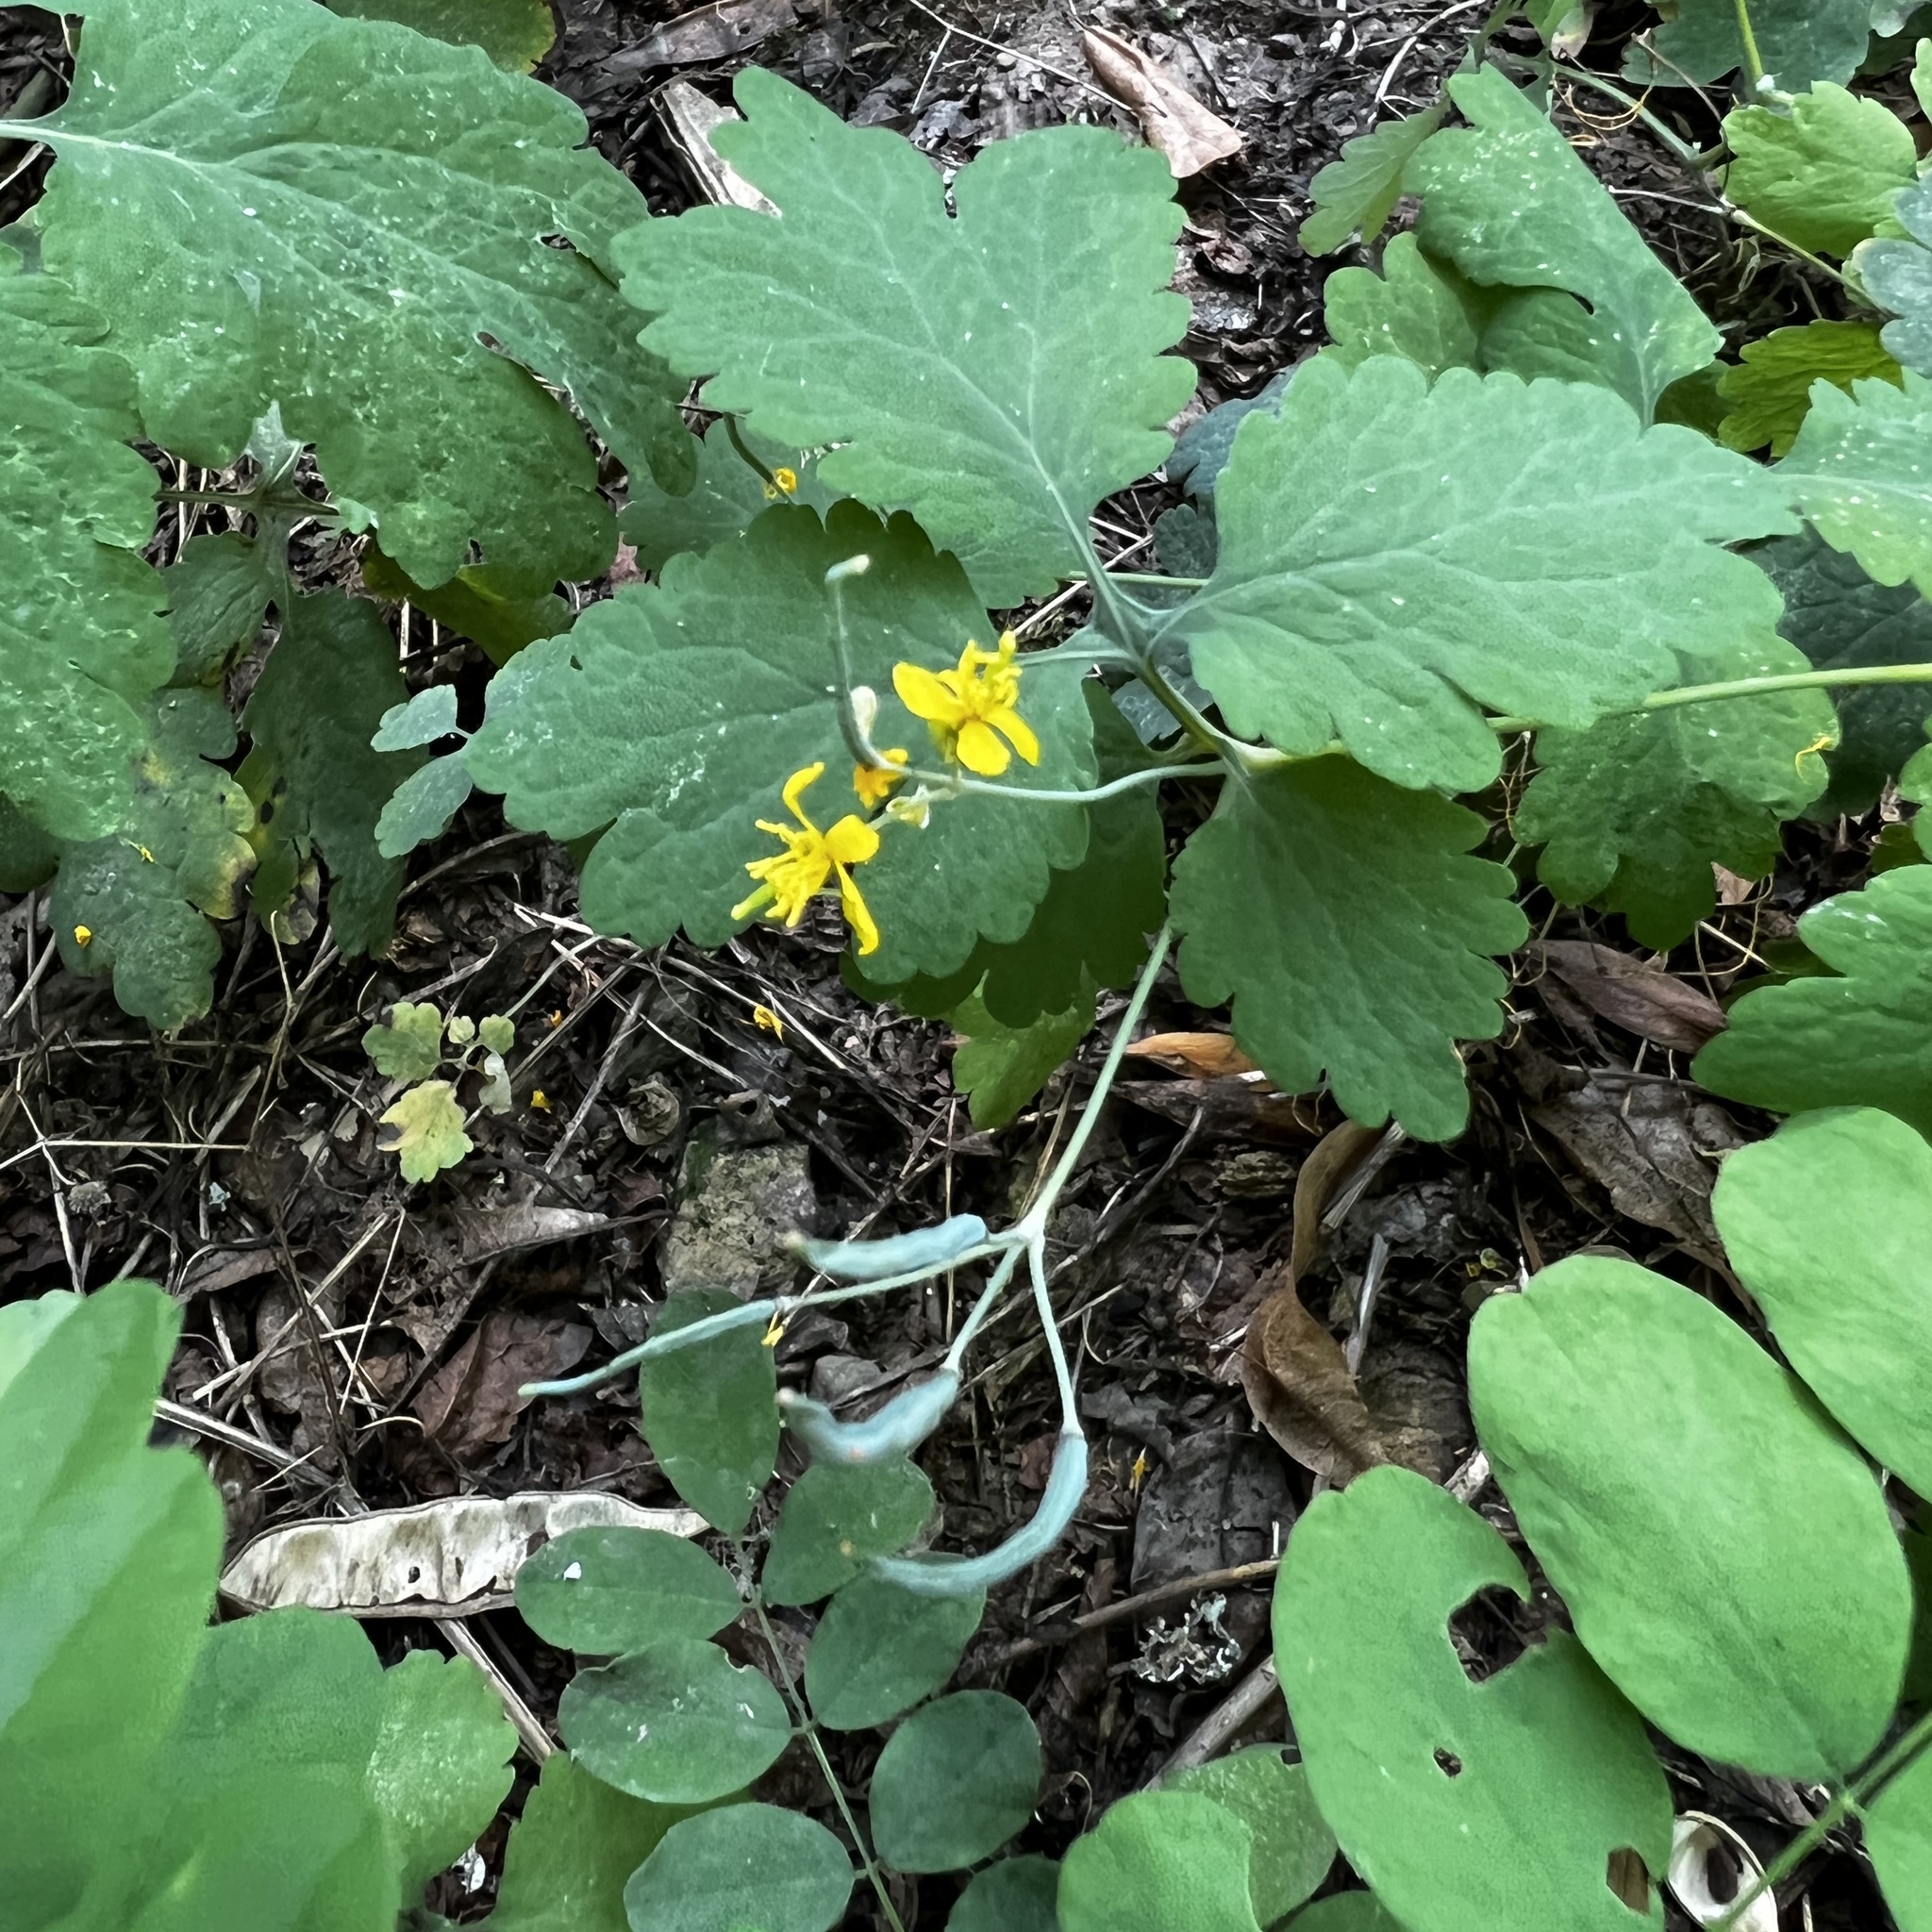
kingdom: Plantae
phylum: Tracheophyta
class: Magnoliopsida
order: Ranunculales
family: Papaveraceae
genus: Chelidonium
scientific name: Chelidonium majus
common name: Greater celandine
